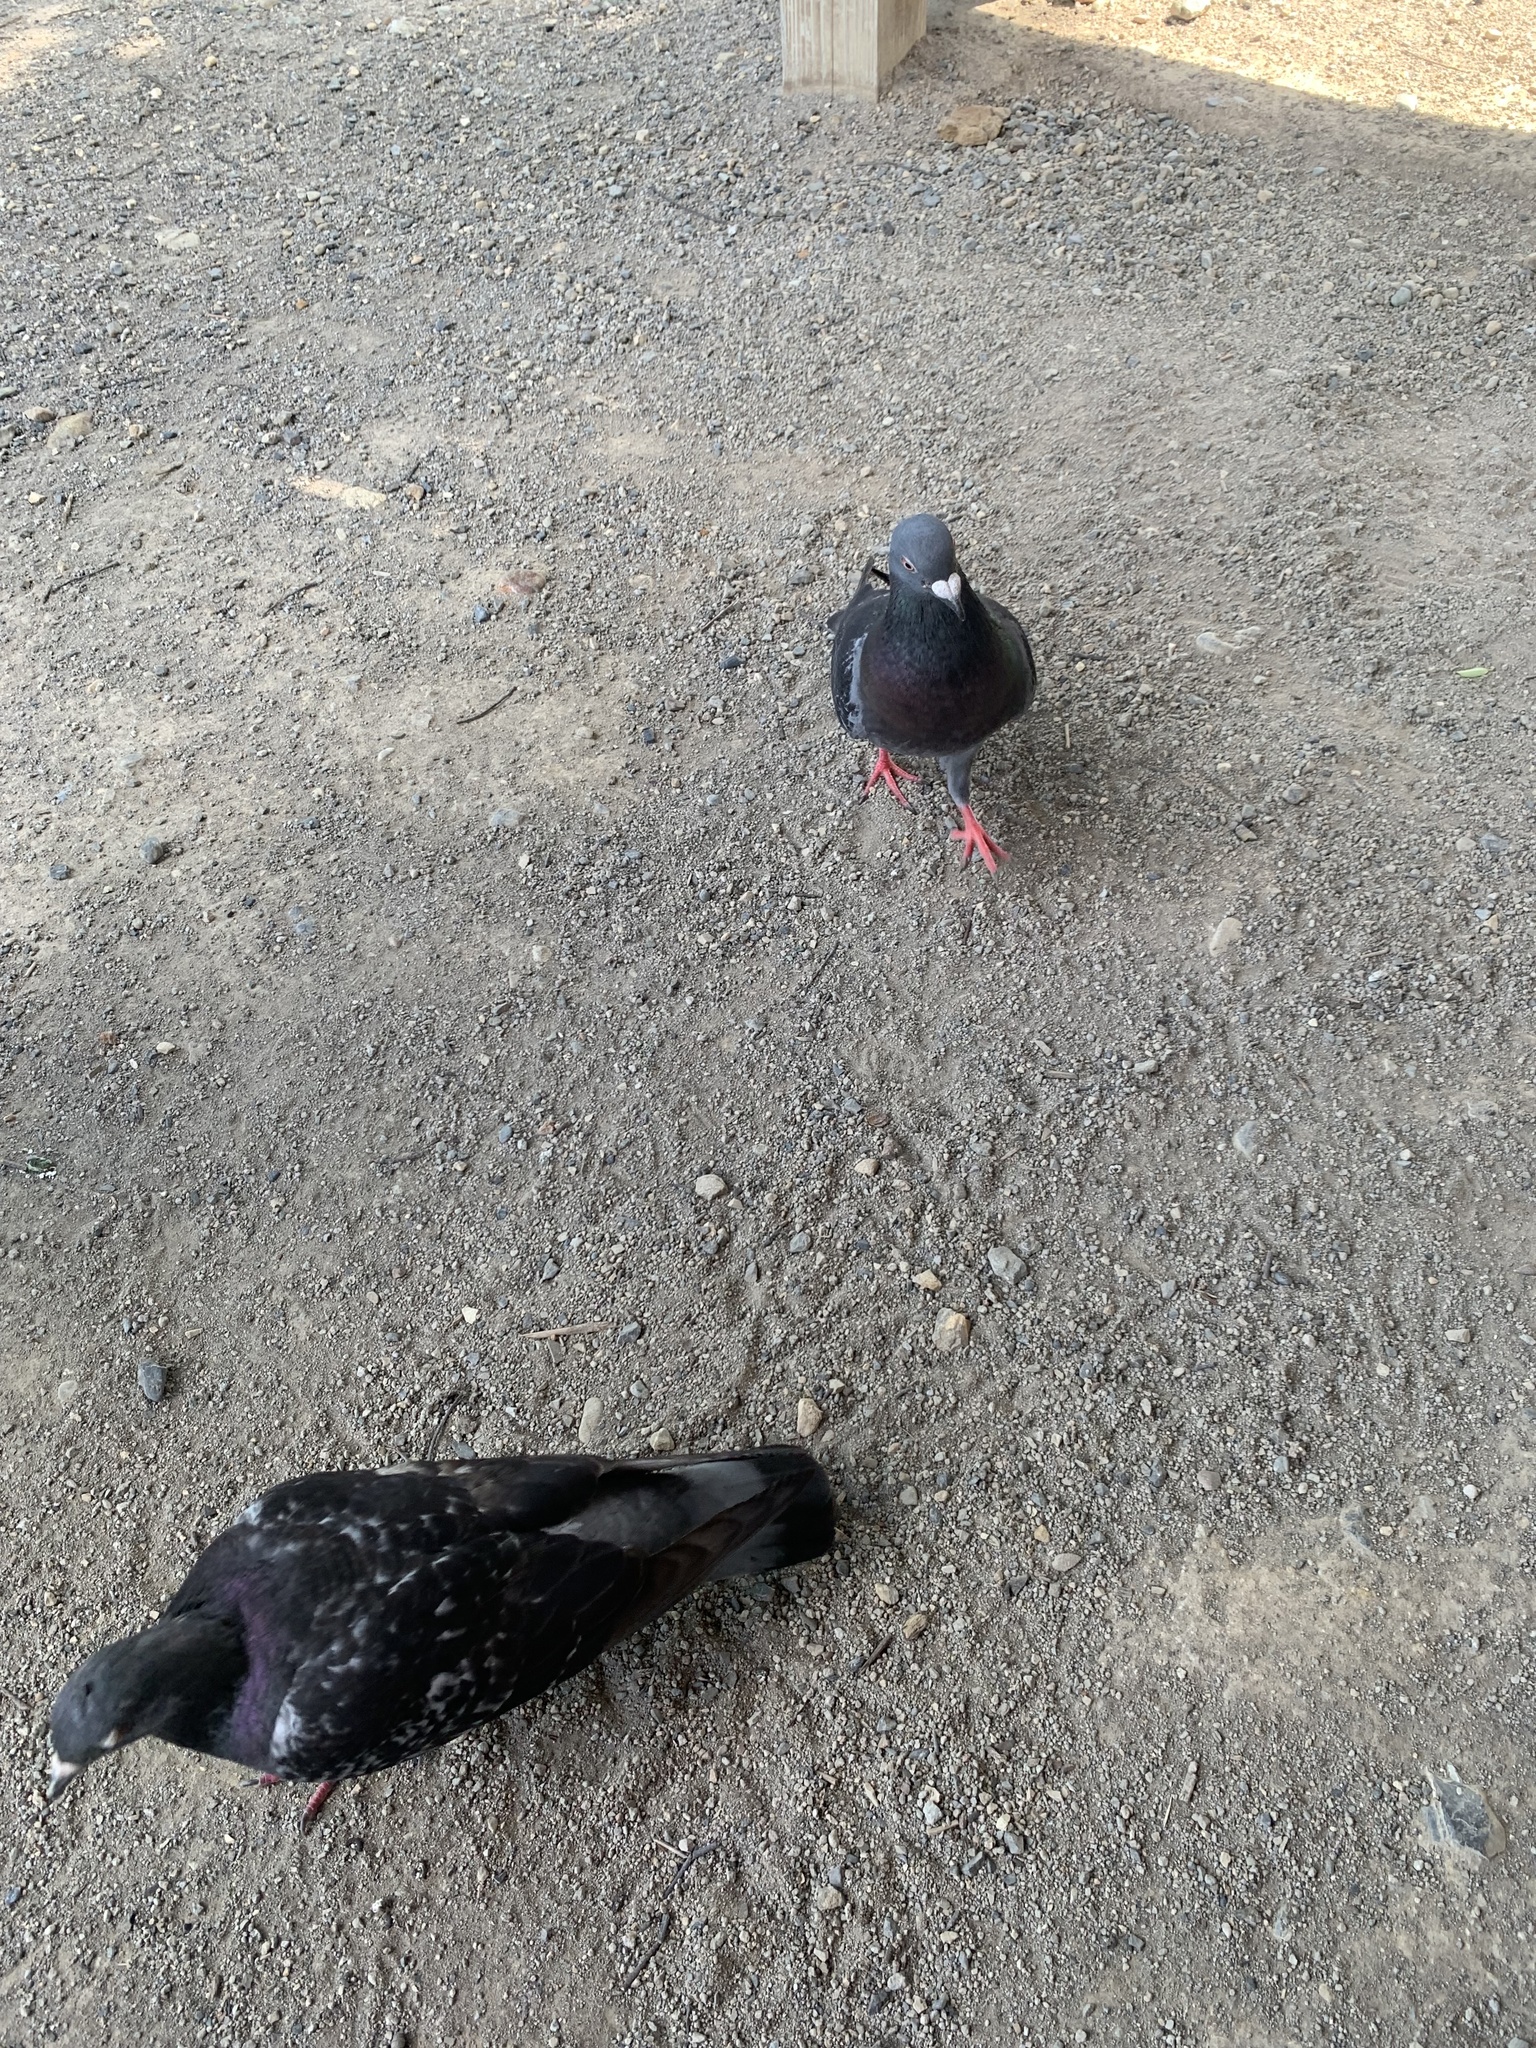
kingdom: Animalia
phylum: Chordata
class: Aves
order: Columbiformes
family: Columbidae
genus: Columba
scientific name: Columba livia
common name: Rock pigeon
